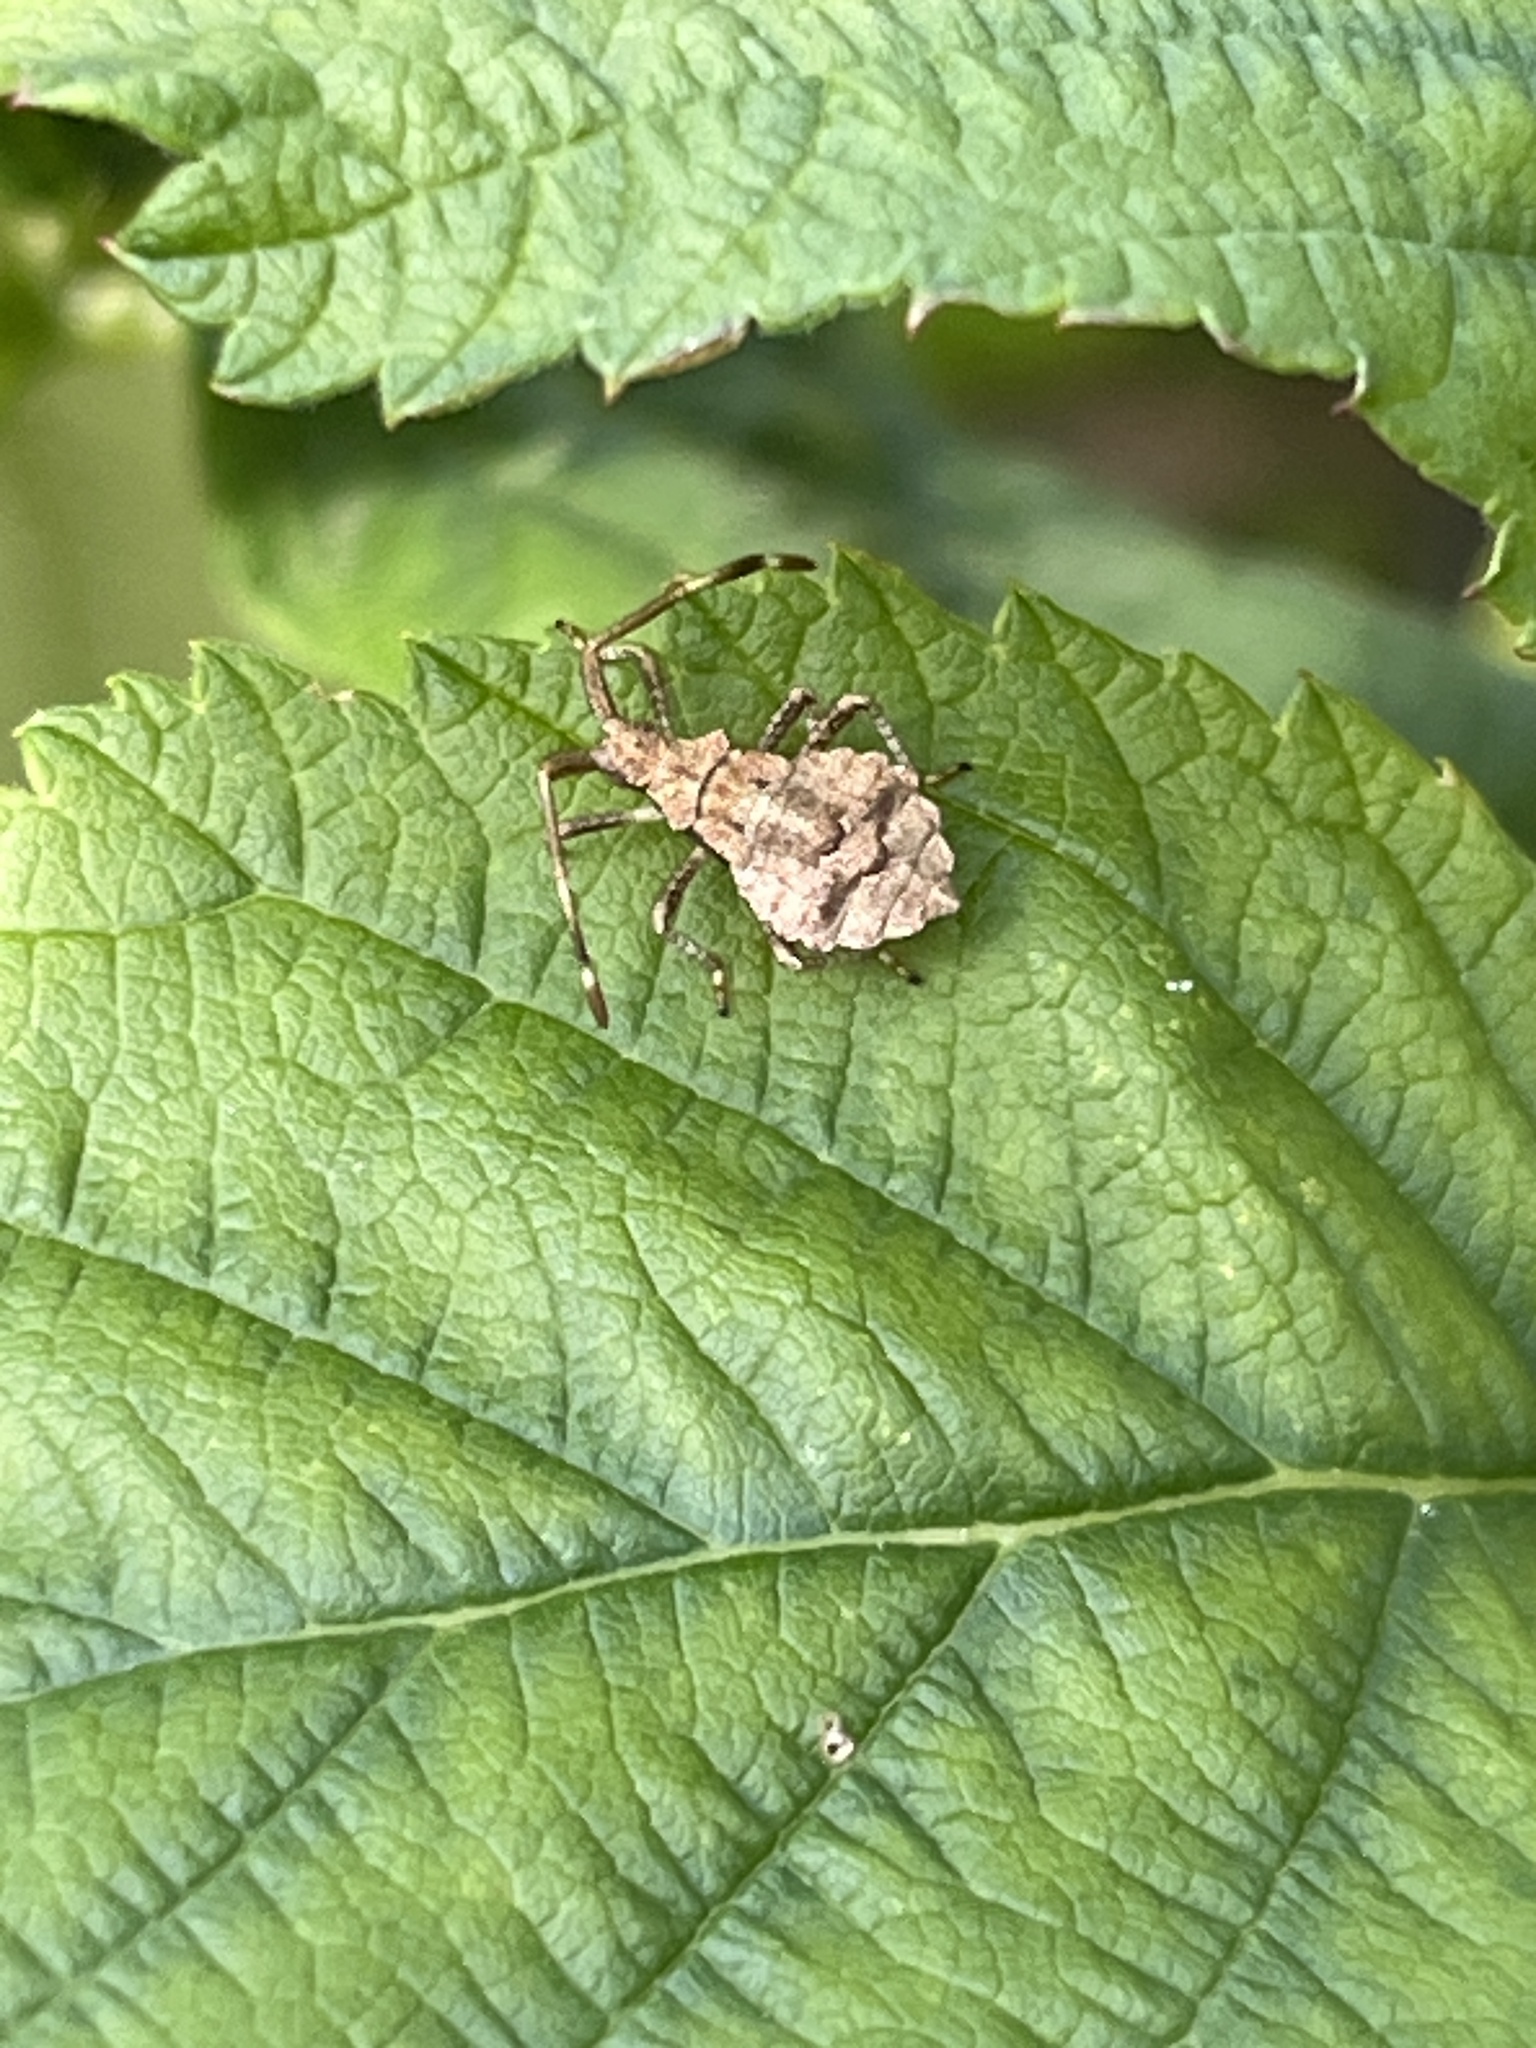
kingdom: Animalia
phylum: Arthropoda
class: Insecta
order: Hemiptera
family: Coreidae
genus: Coreus
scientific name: Coreus marginatus
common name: Dock bug
